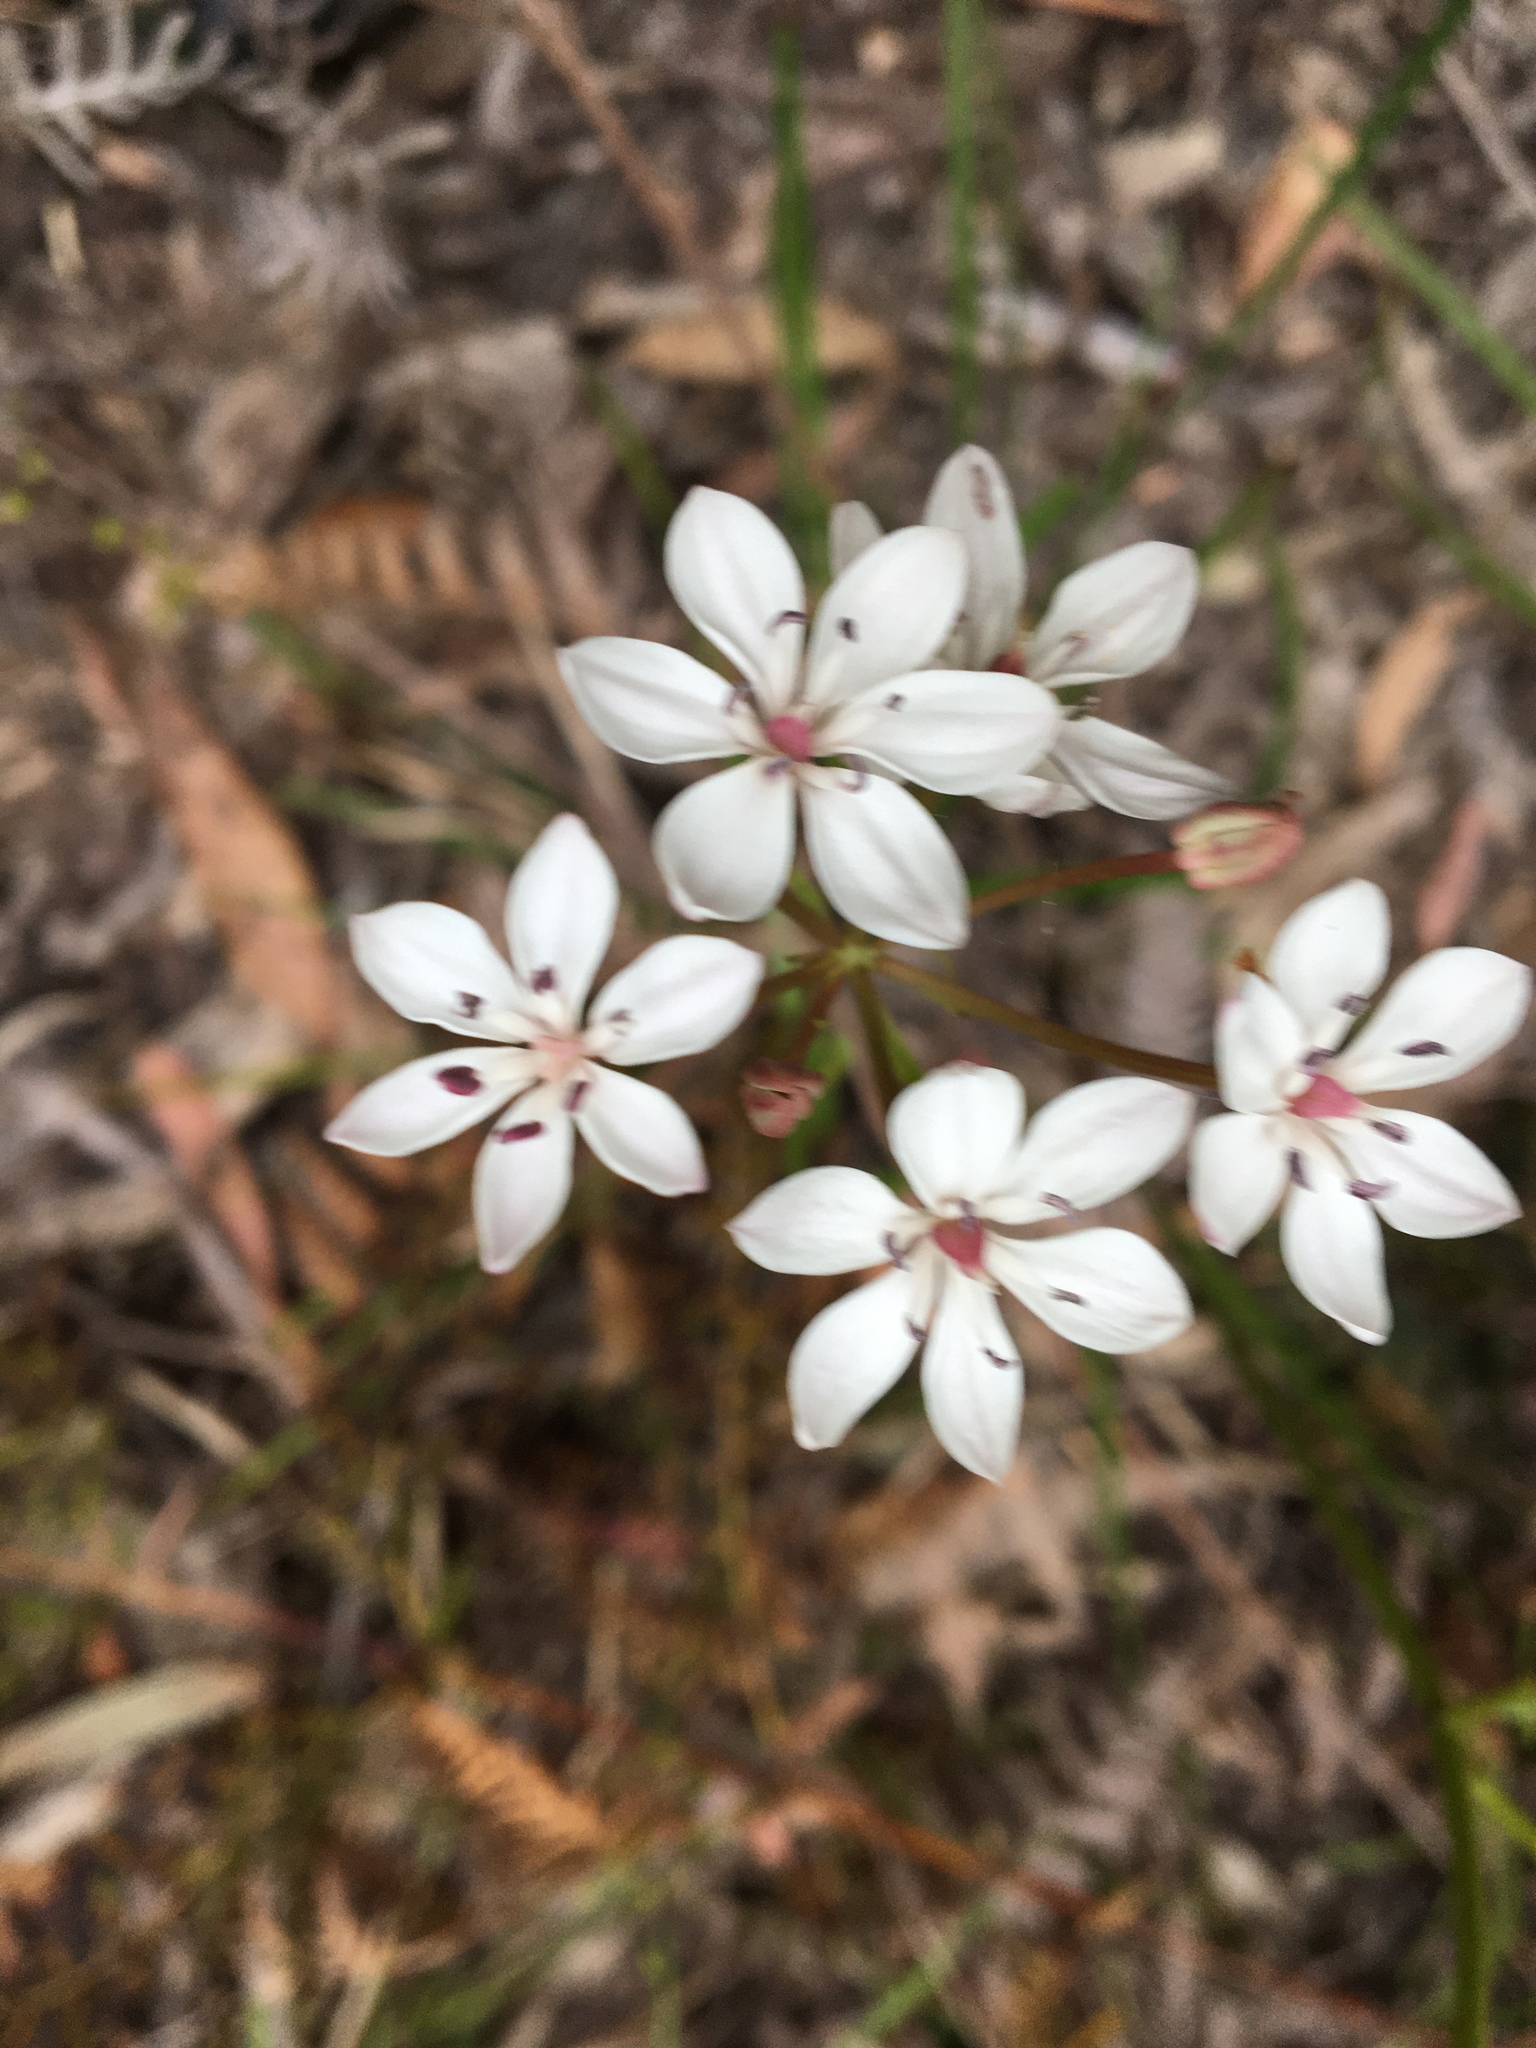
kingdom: Plantae
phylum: Tracheophyta
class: Liliopsida
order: Liliales
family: Colchicaceae
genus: Burchardia
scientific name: Burchardia umbellata
